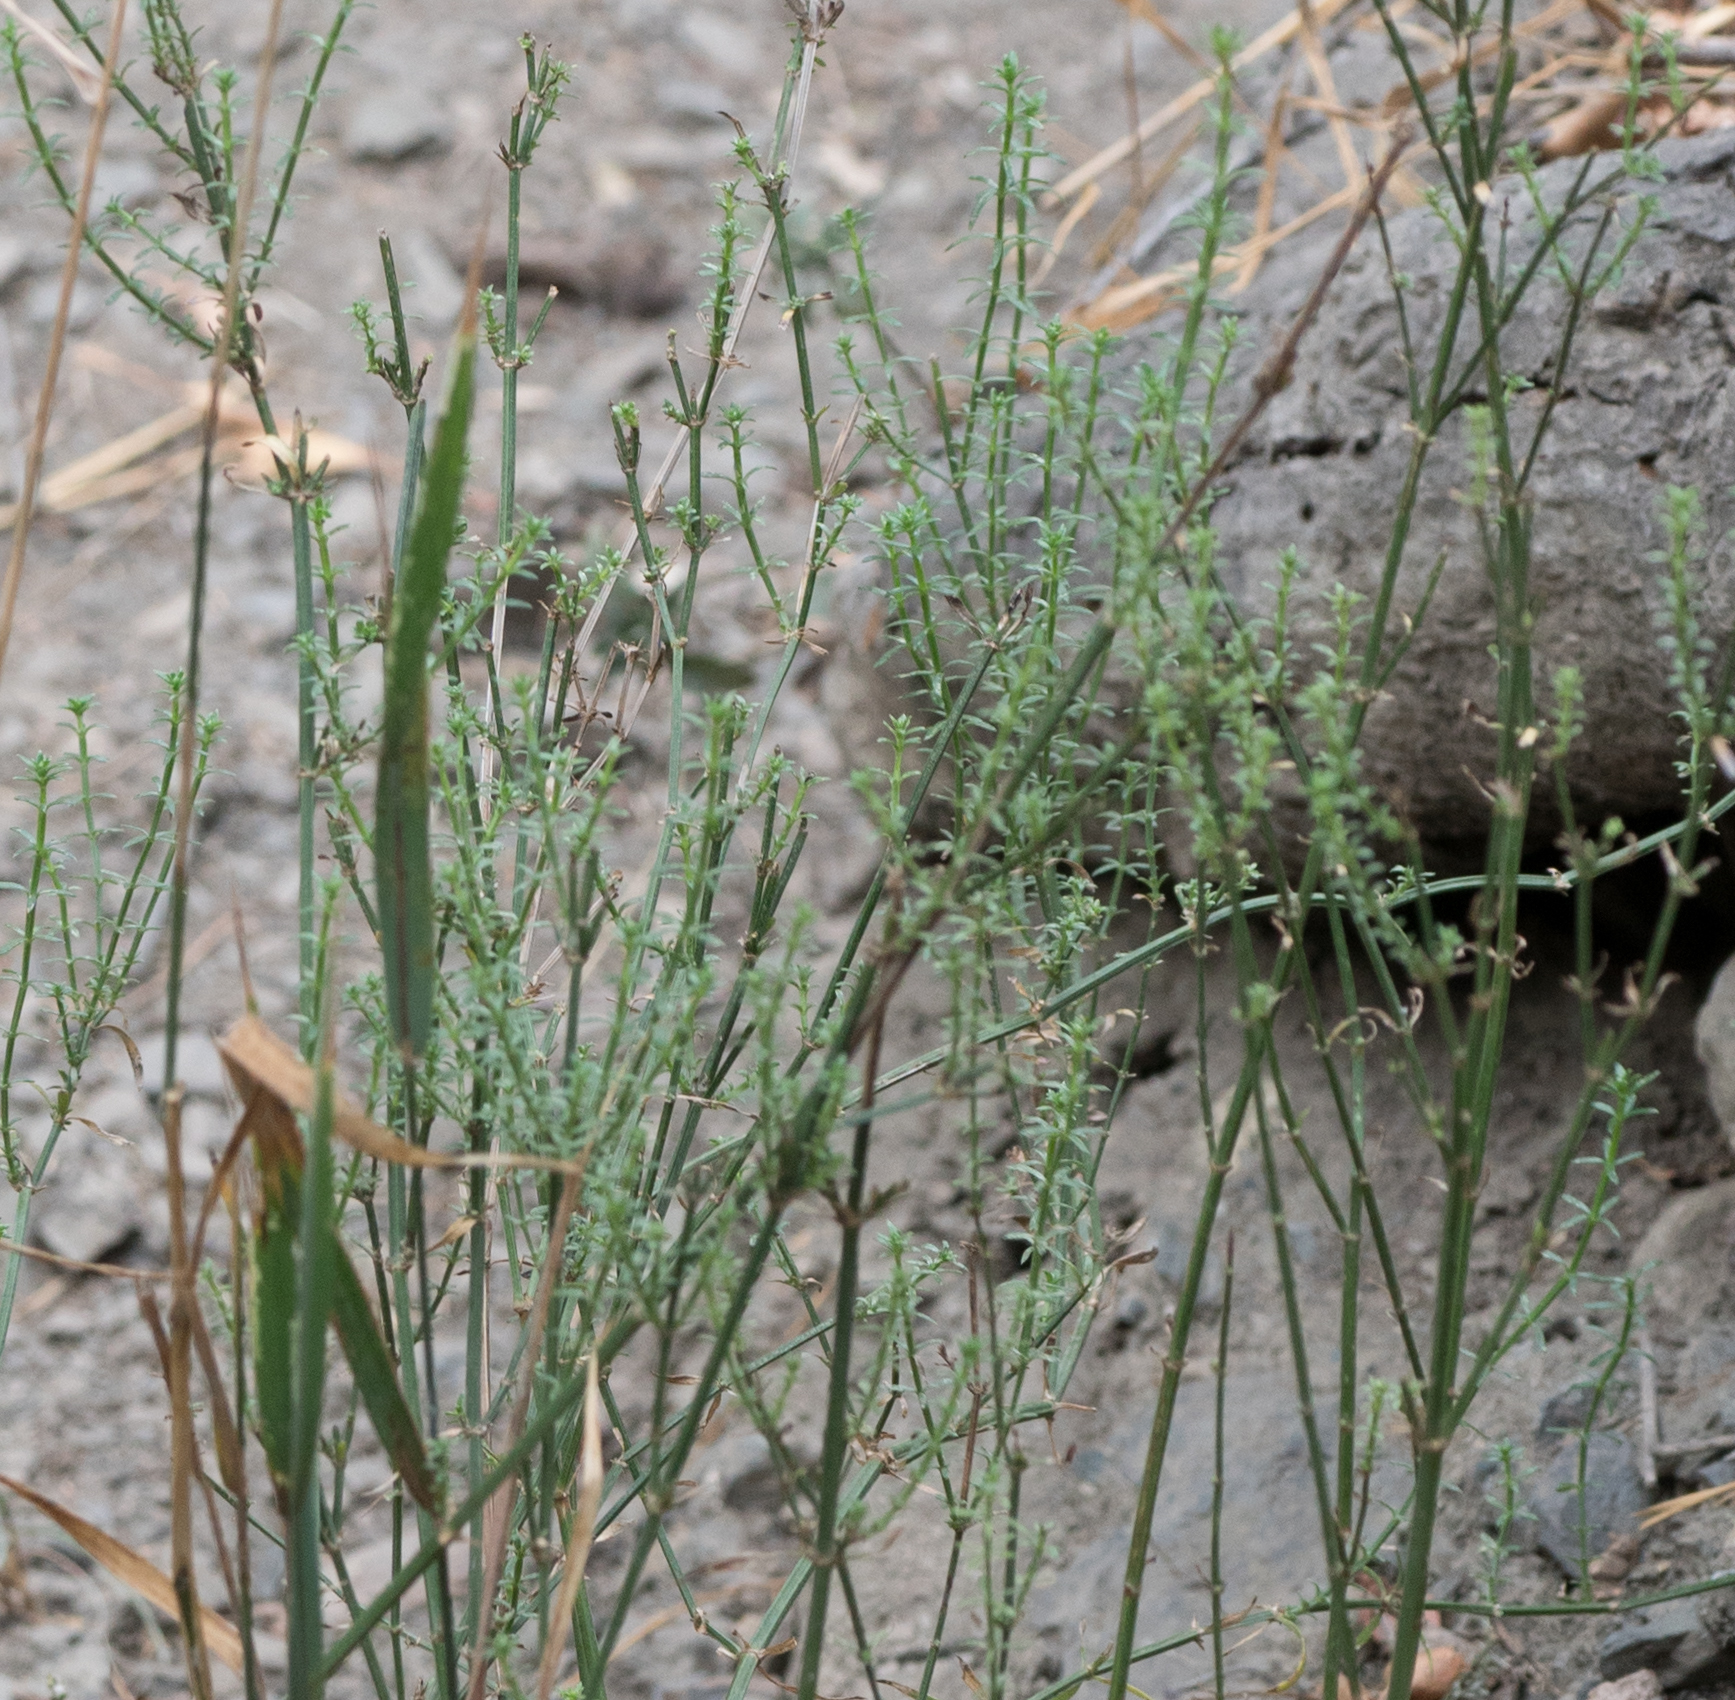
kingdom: Plantae
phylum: Tracheophyta
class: Magnoliopsida
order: Gentianales
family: Rubiaceae
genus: Galium
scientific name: Galium angustifolium
